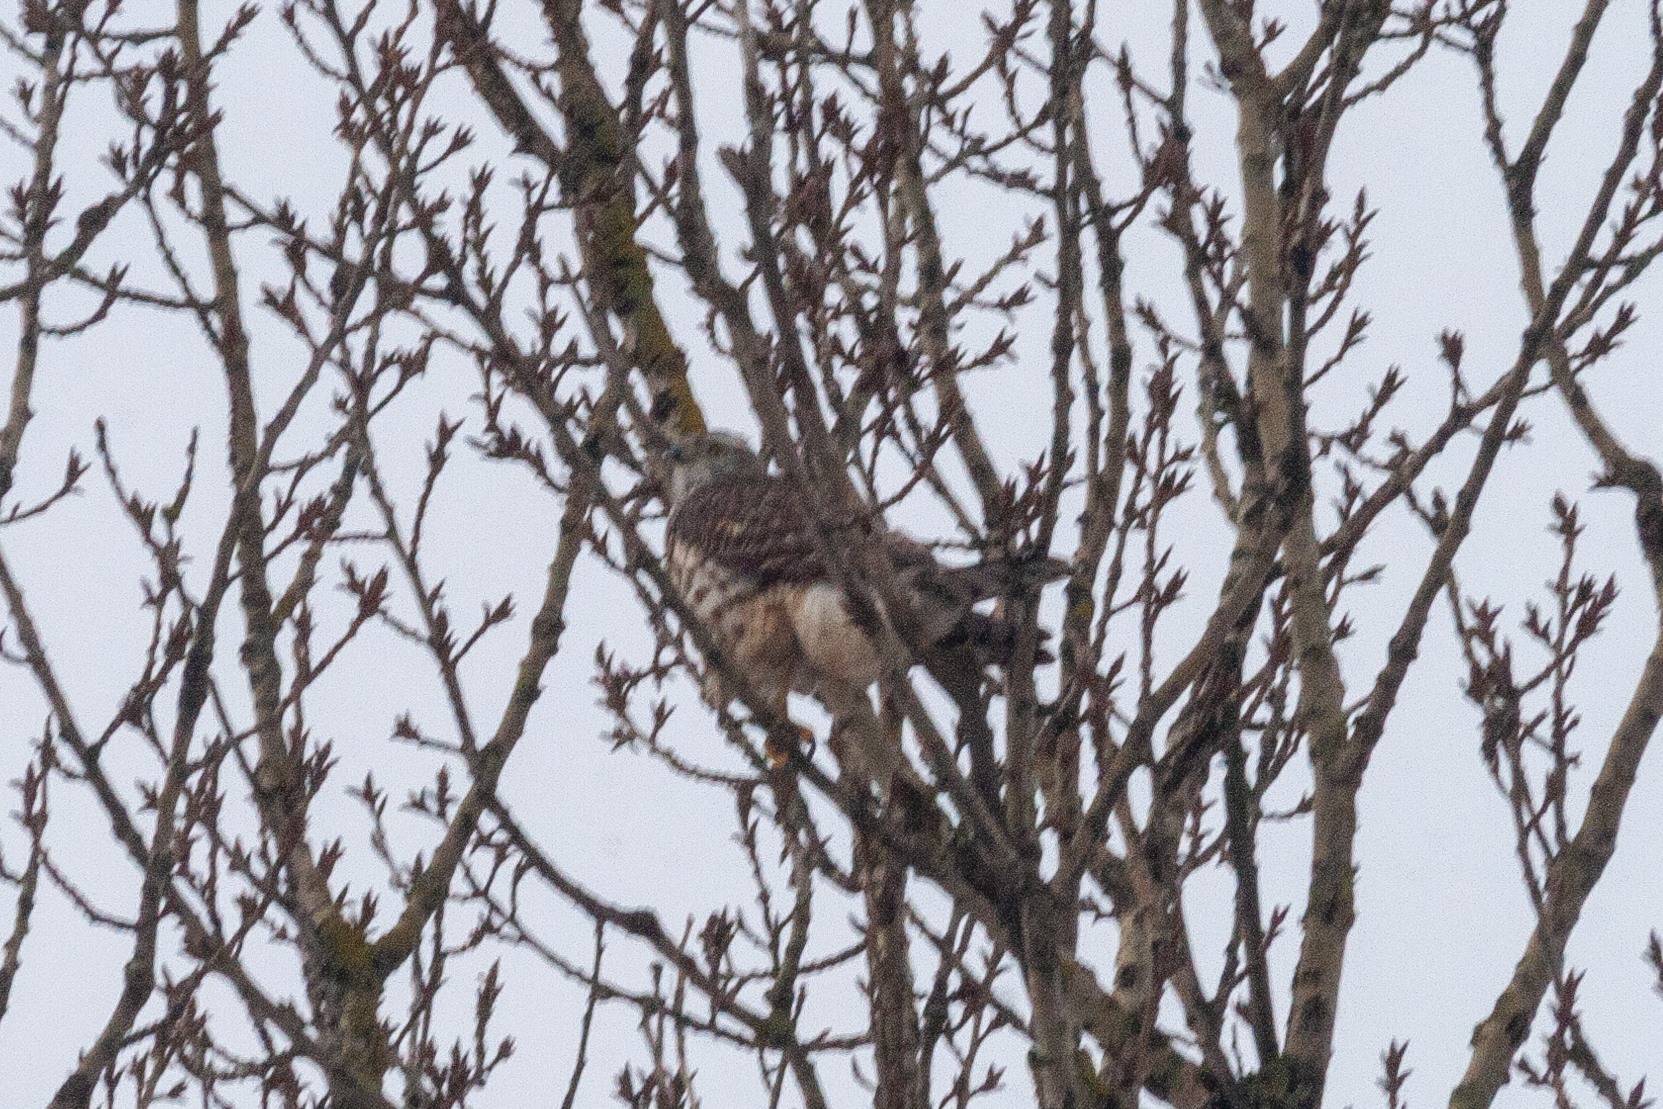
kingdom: Animalia
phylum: Chordata
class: Aves
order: Accipitriformes
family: Accipitridae
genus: Accipiter
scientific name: Accipiter gentilis
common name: Northern goshawk
